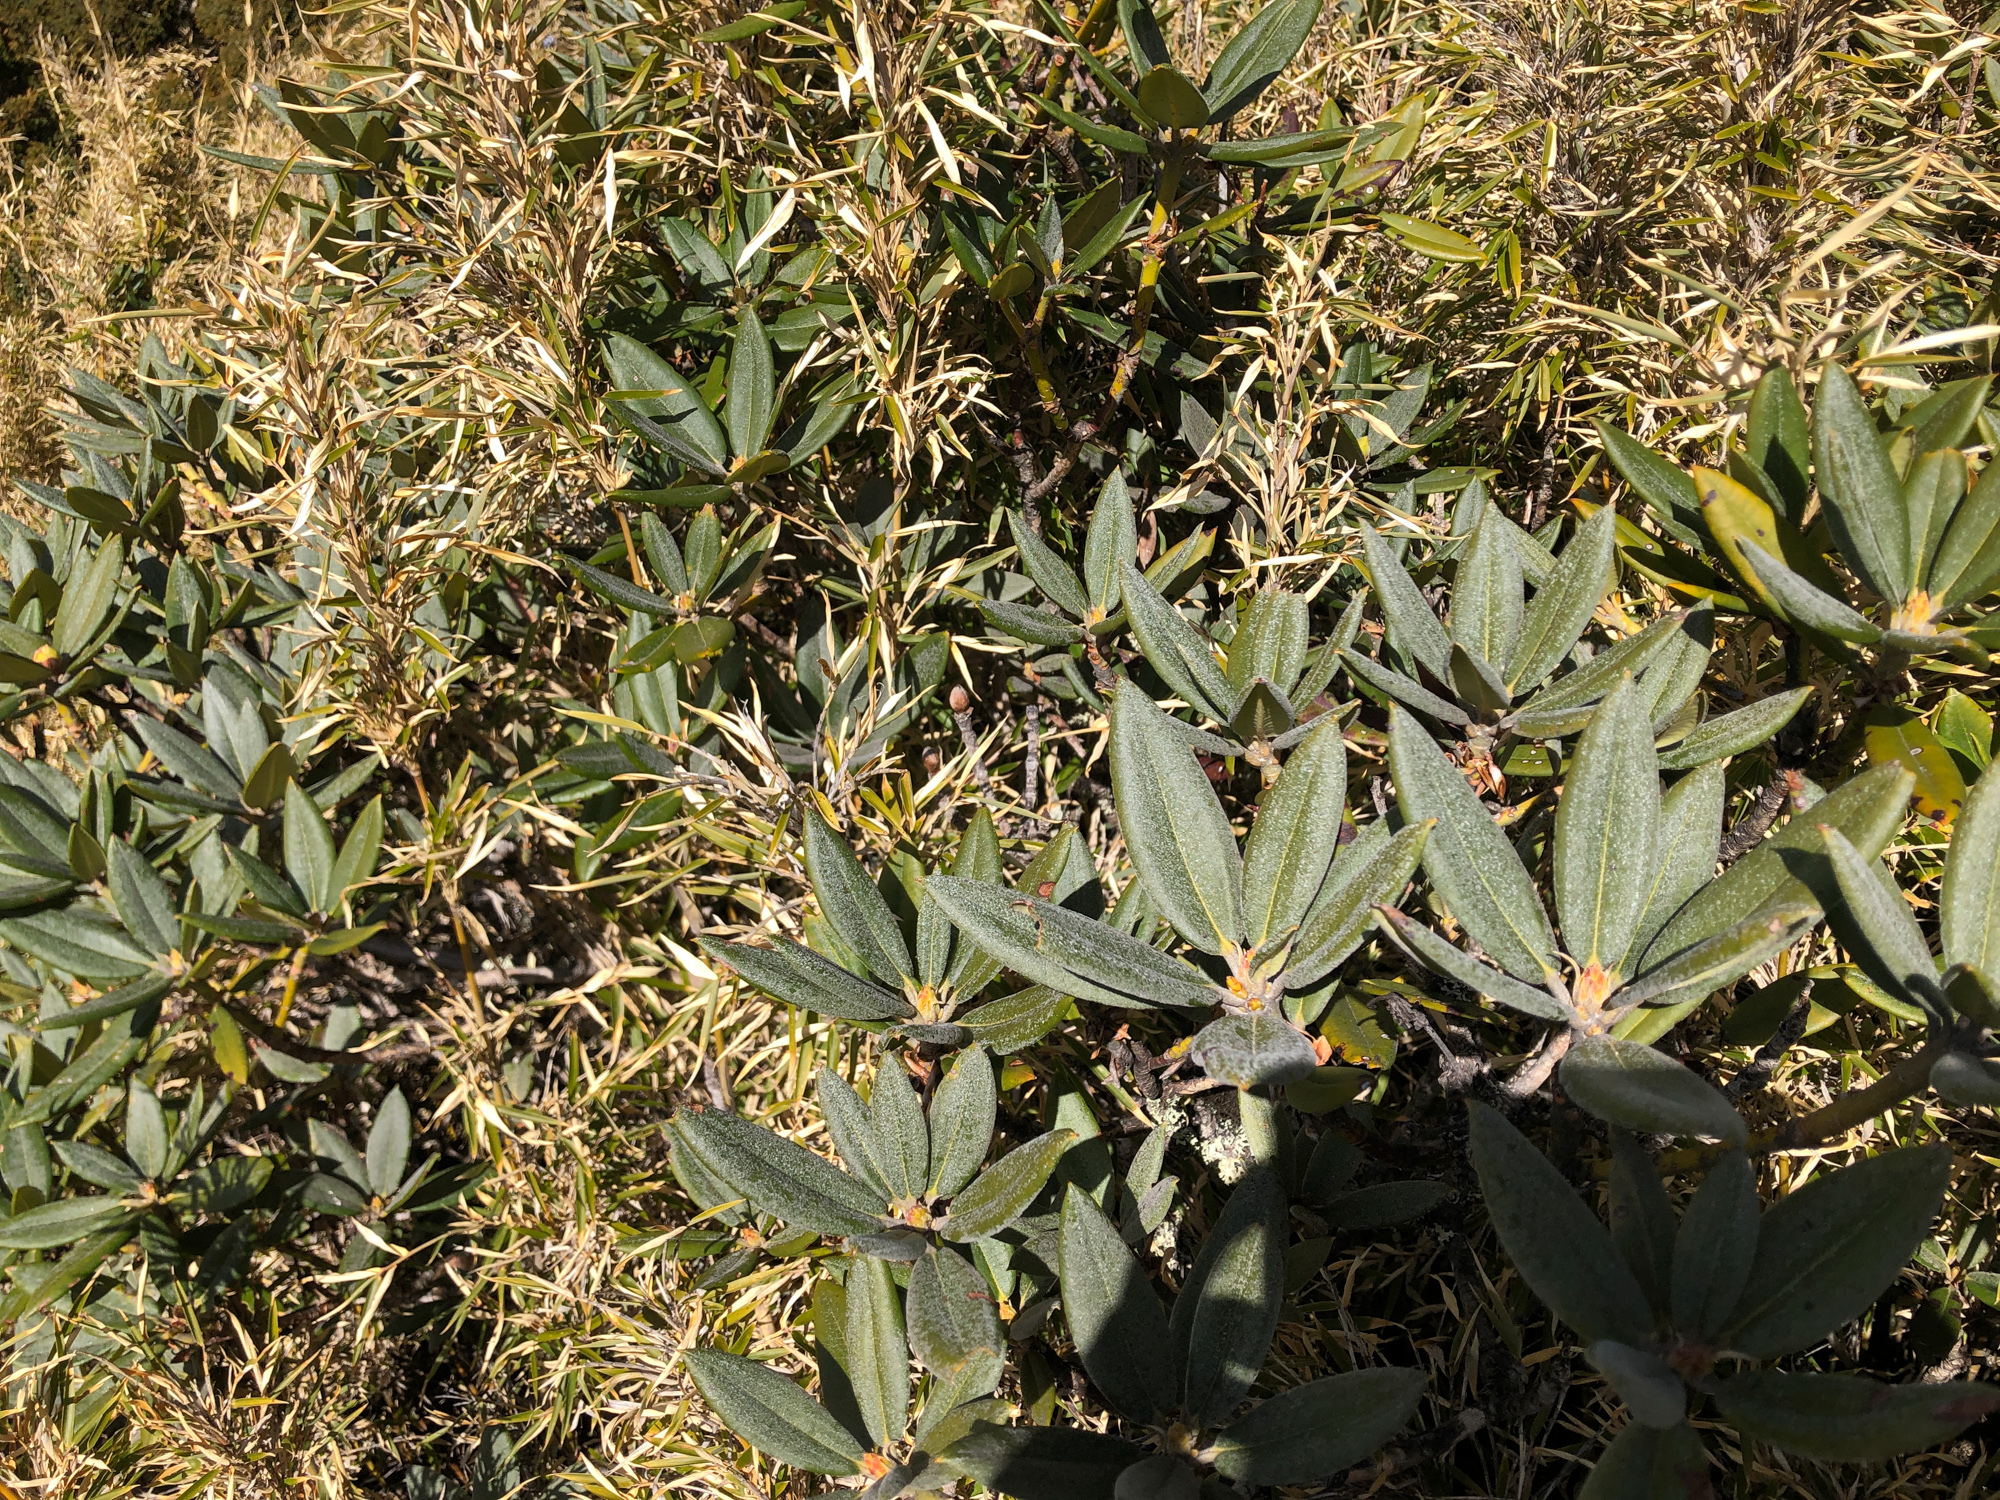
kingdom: Plantae
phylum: Tracheophyta
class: Magnoliopsida
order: Ericales
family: Ericaceae
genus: Rhododendron
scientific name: Rhododendron pseudochrysanthum
